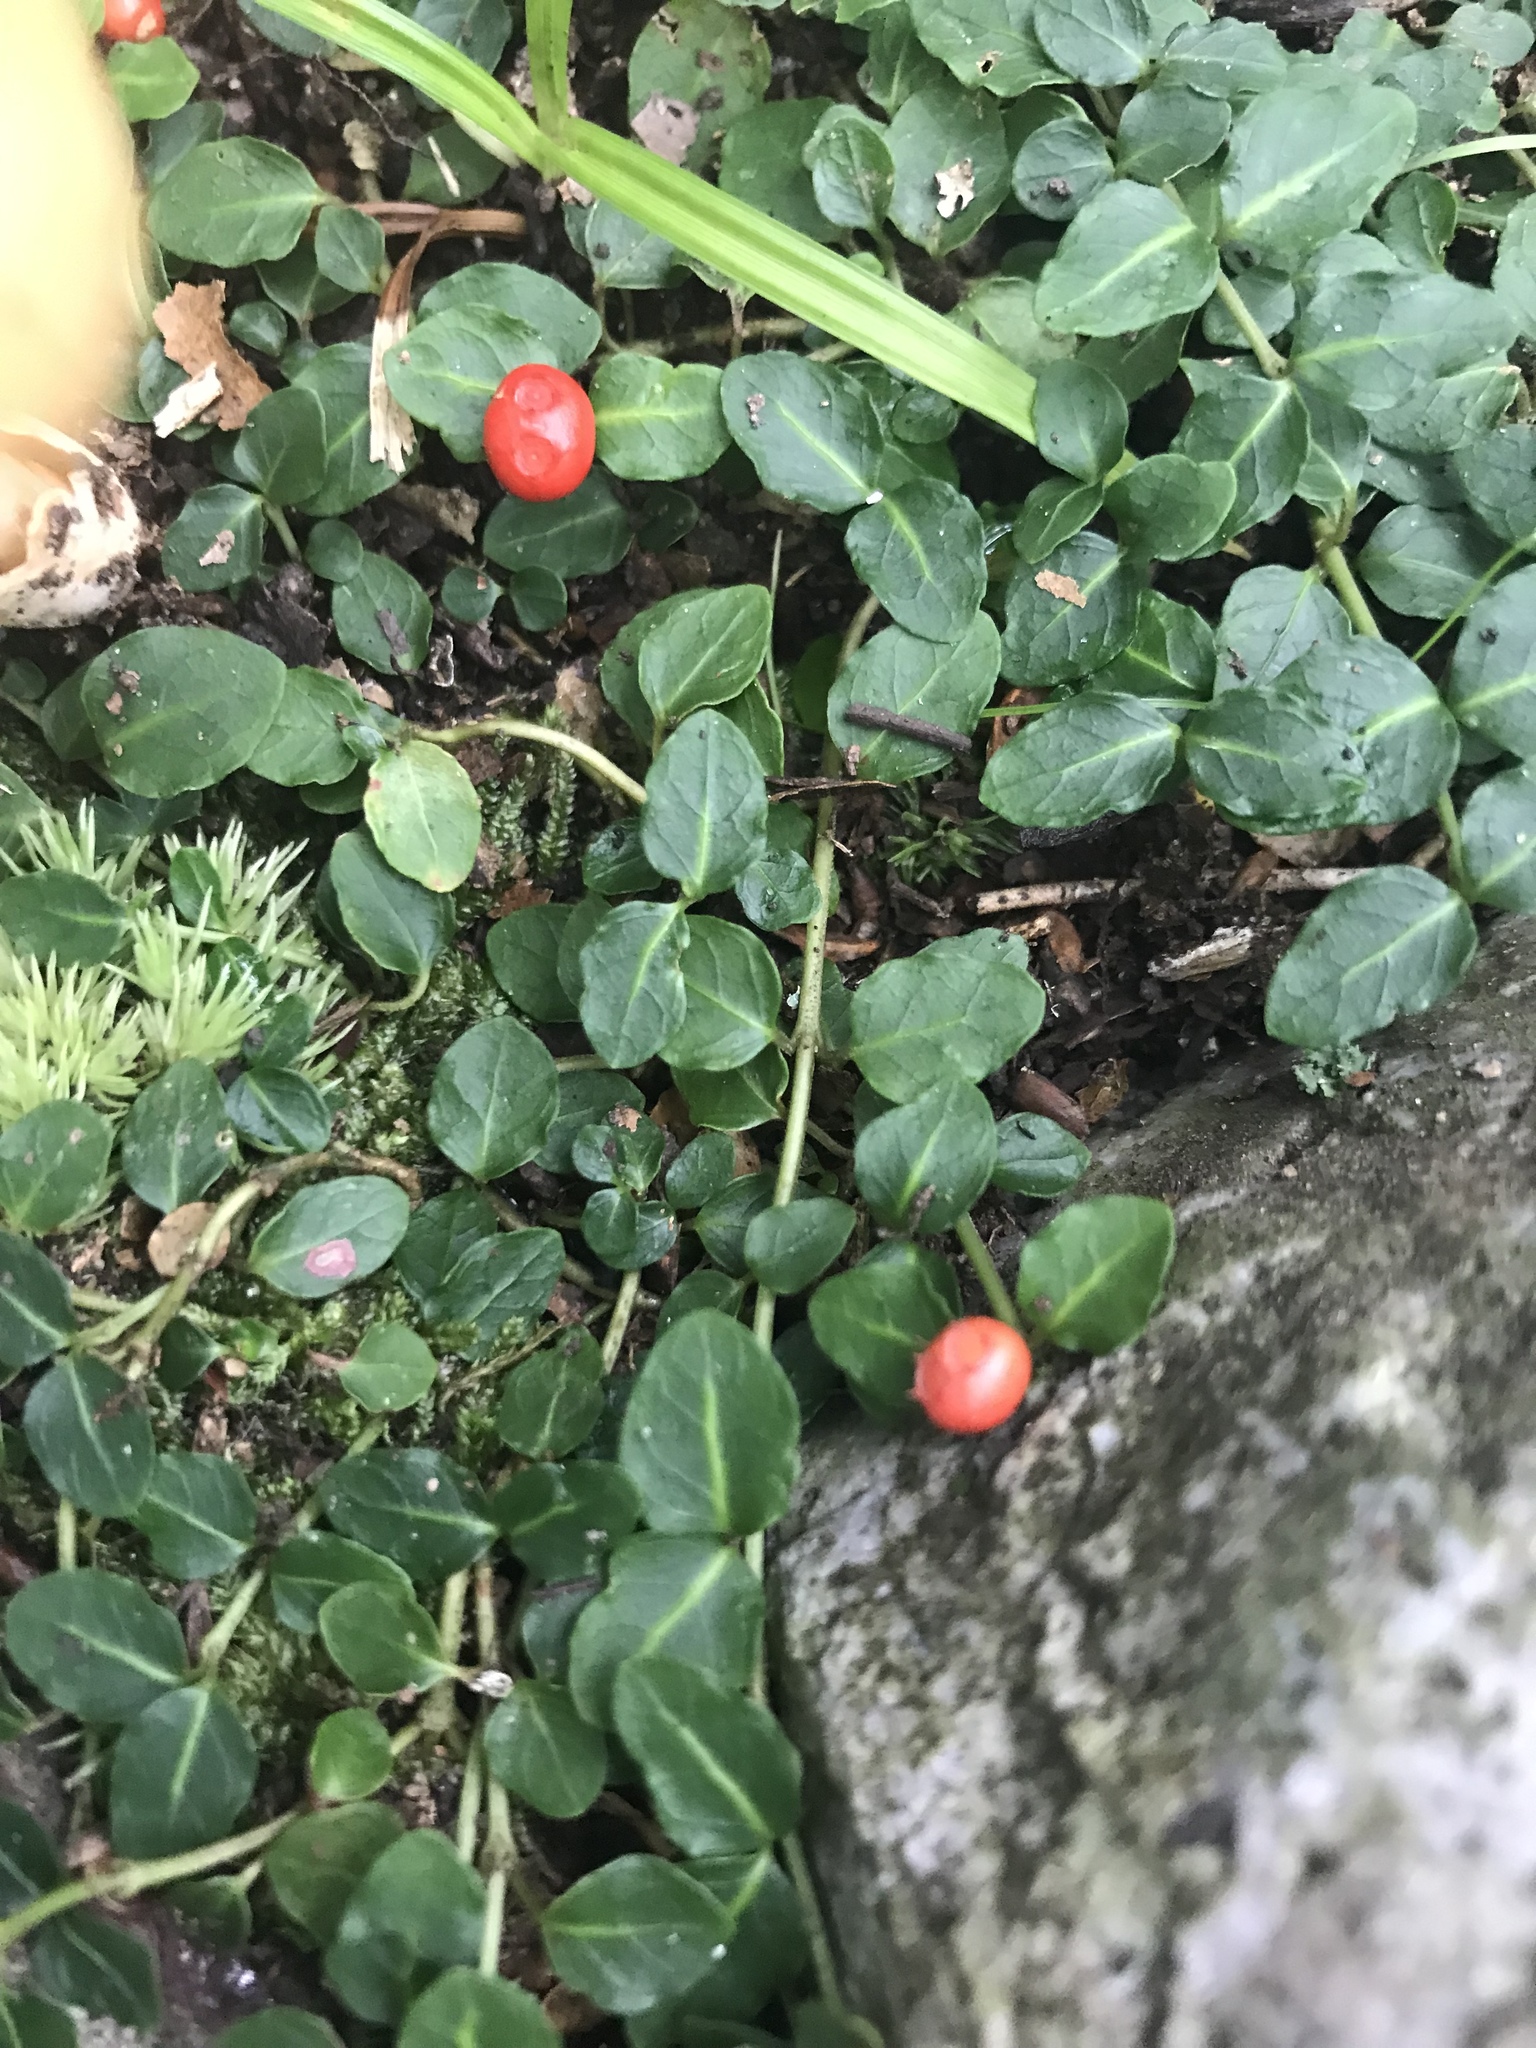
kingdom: Plantae
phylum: Tracheophyta
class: Magnoliopsida
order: Gentianales
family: Rubiaceae
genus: Mitchella
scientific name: Mitchella repens
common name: Partridge-berry
